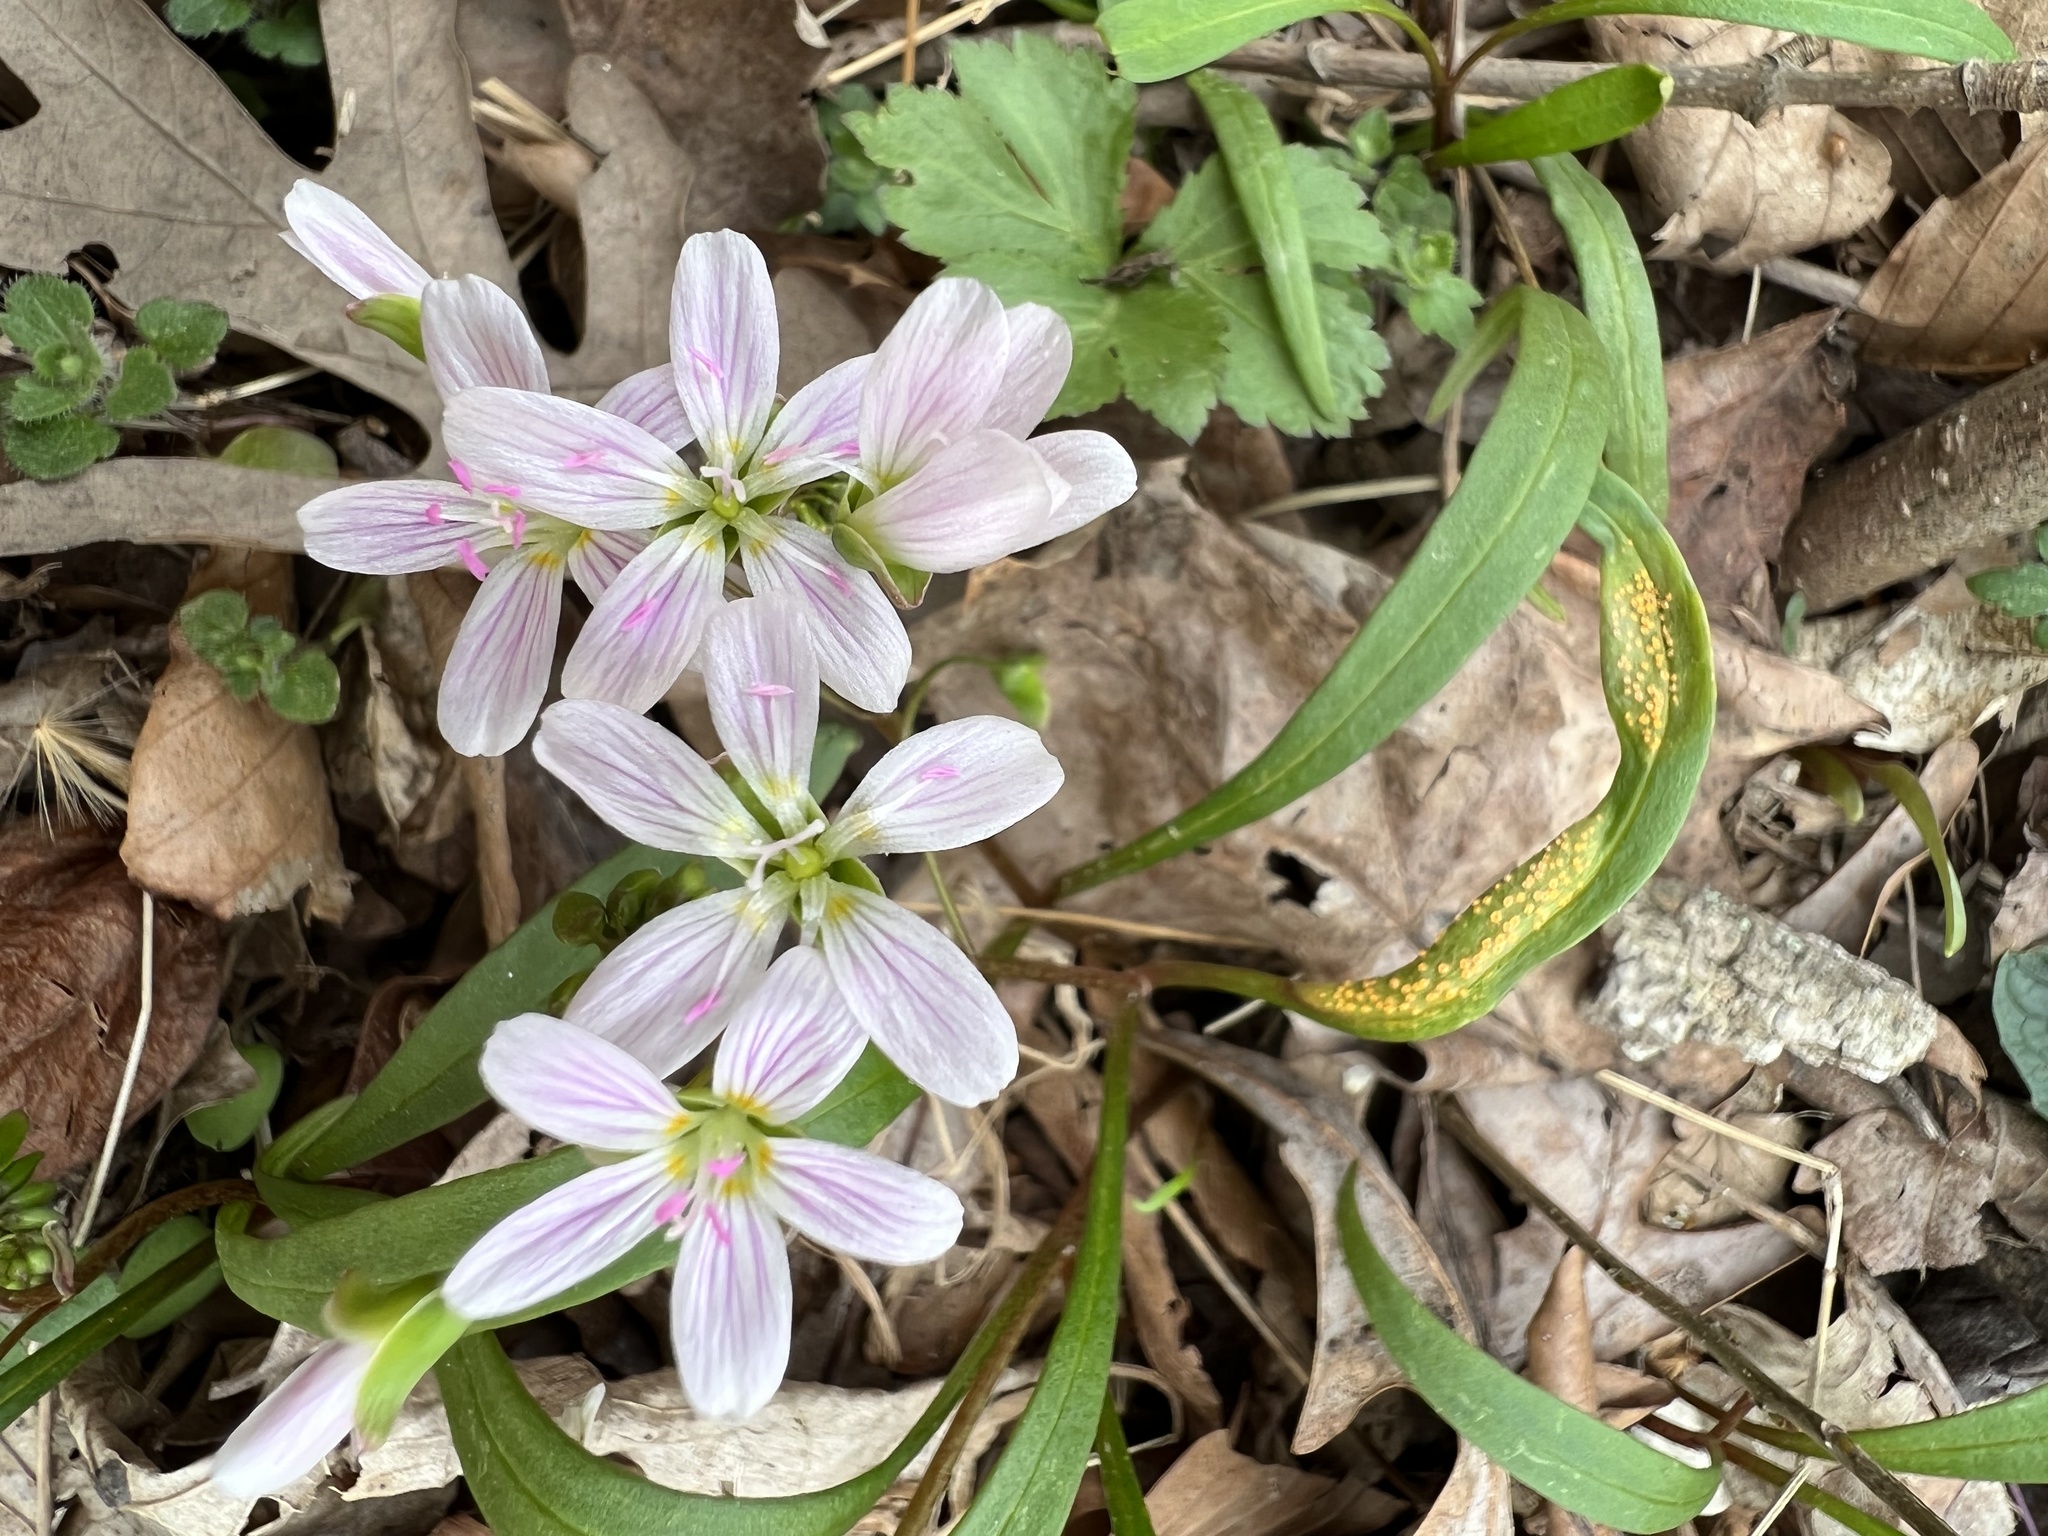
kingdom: Fungi
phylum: Basidiomycota
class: Pucciniomycetes
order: Pucciniales
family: Pucciniaceae
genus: Puccinia
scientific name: Puccinia mariae-wilsoniae
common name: Spring beauty rust
